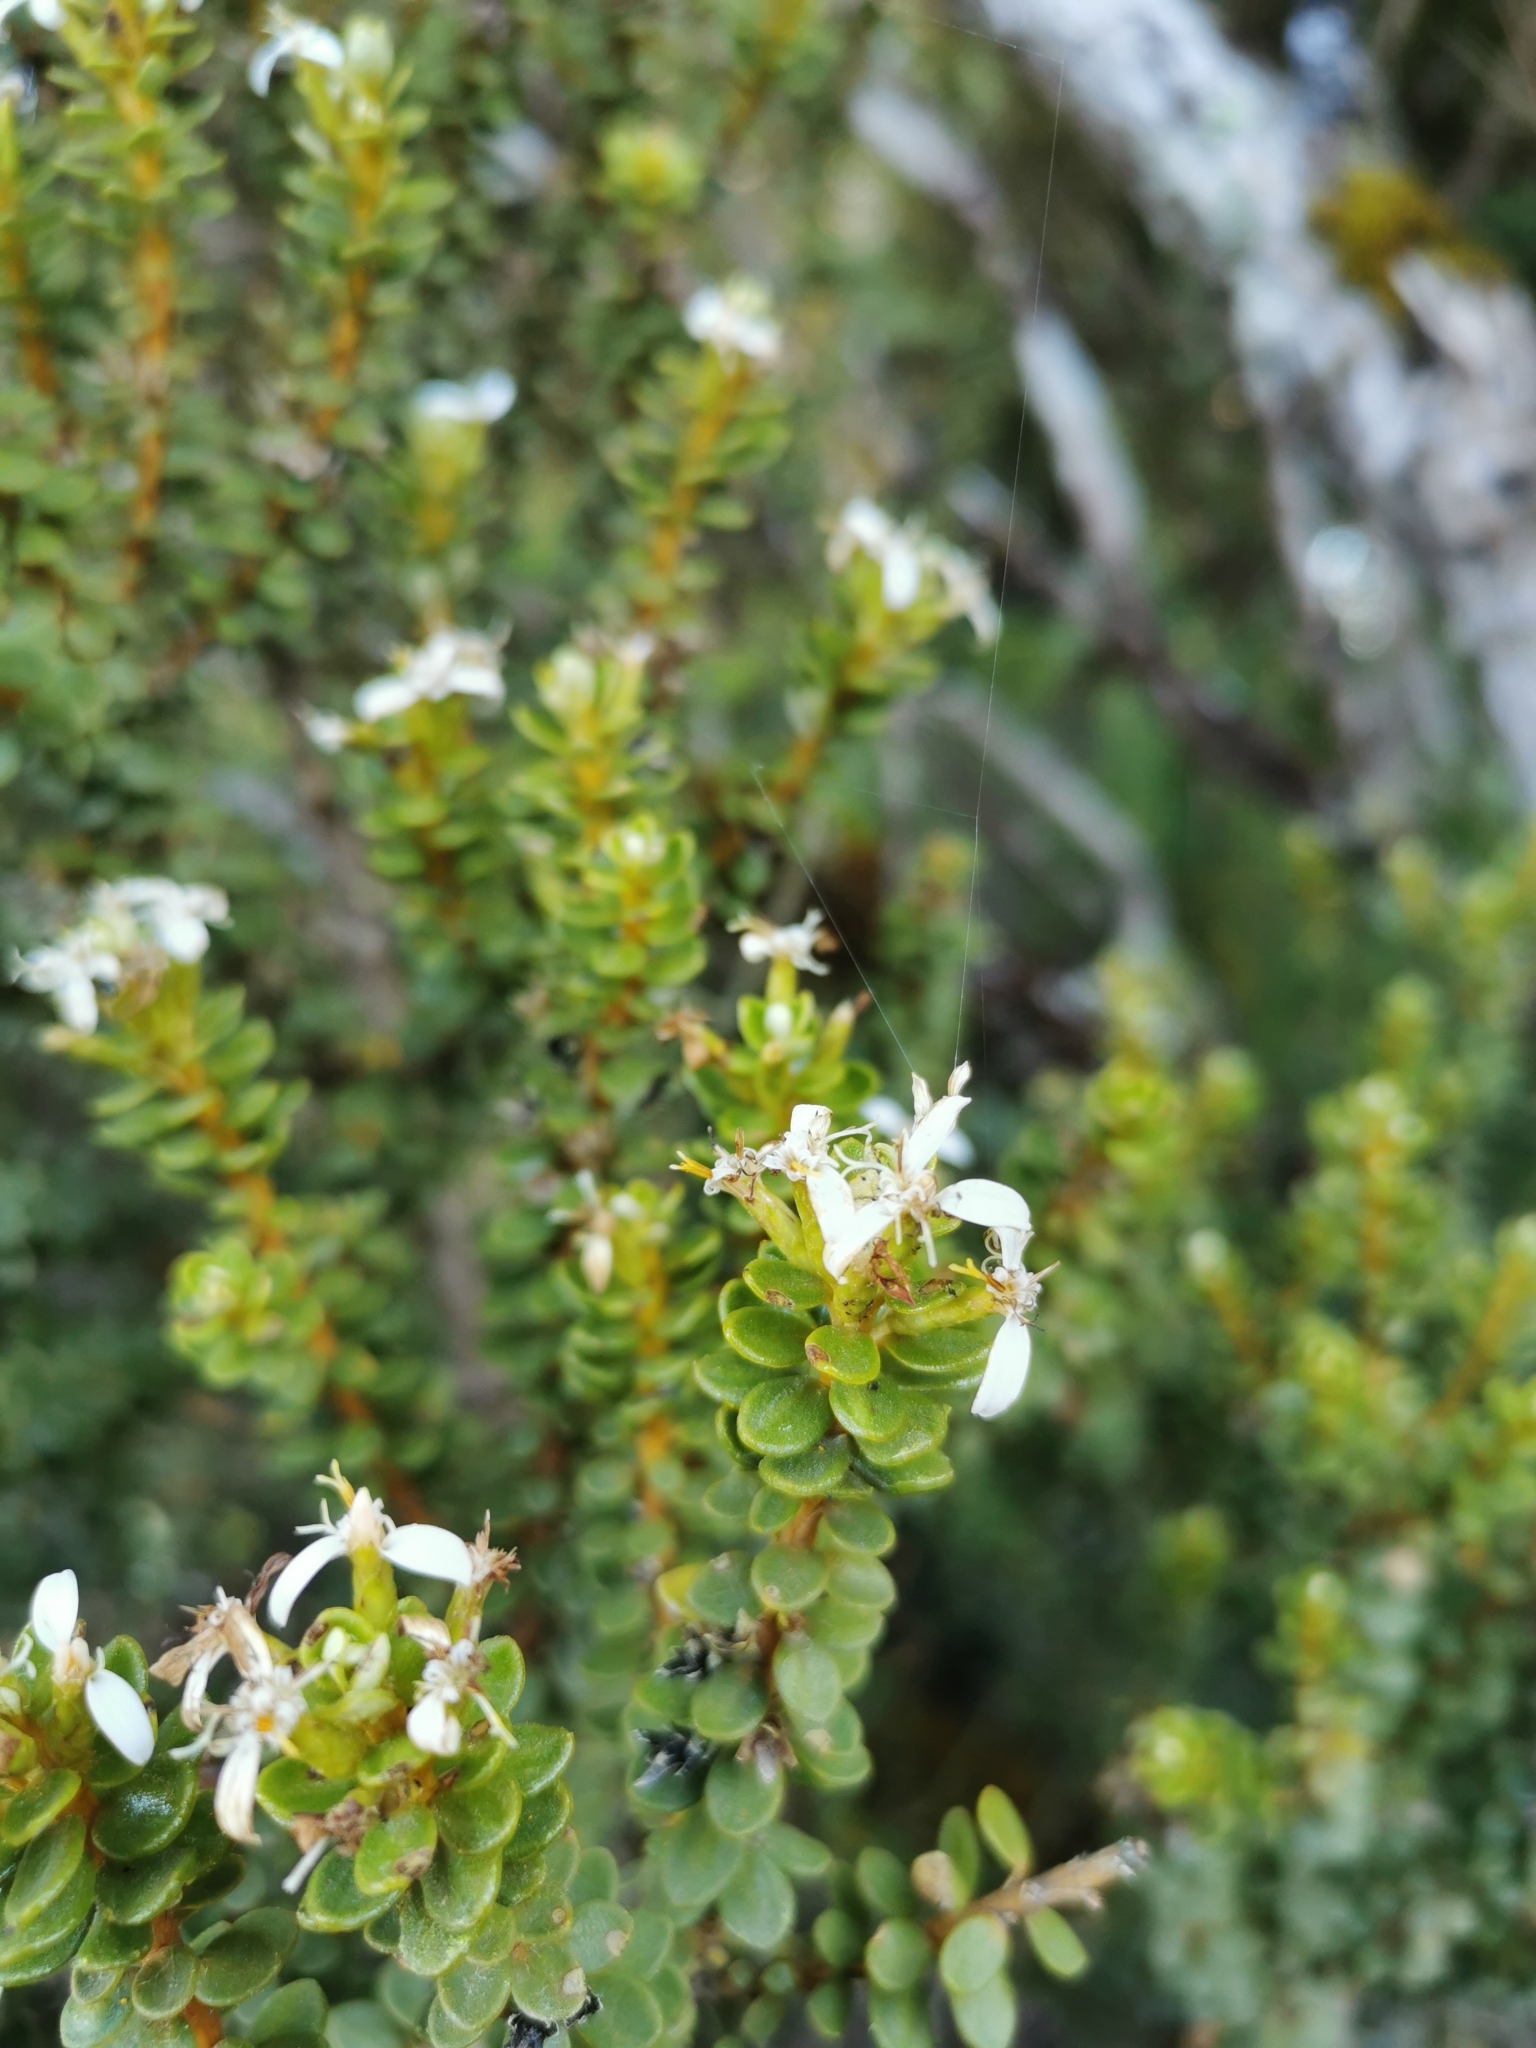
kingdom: Plantae
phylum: Tracheophyta
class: Magnoliopsida
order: Asterales
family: Asteraceae
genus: Olearia
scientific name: Olearia nummularifolia
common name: Sticky daisybush
